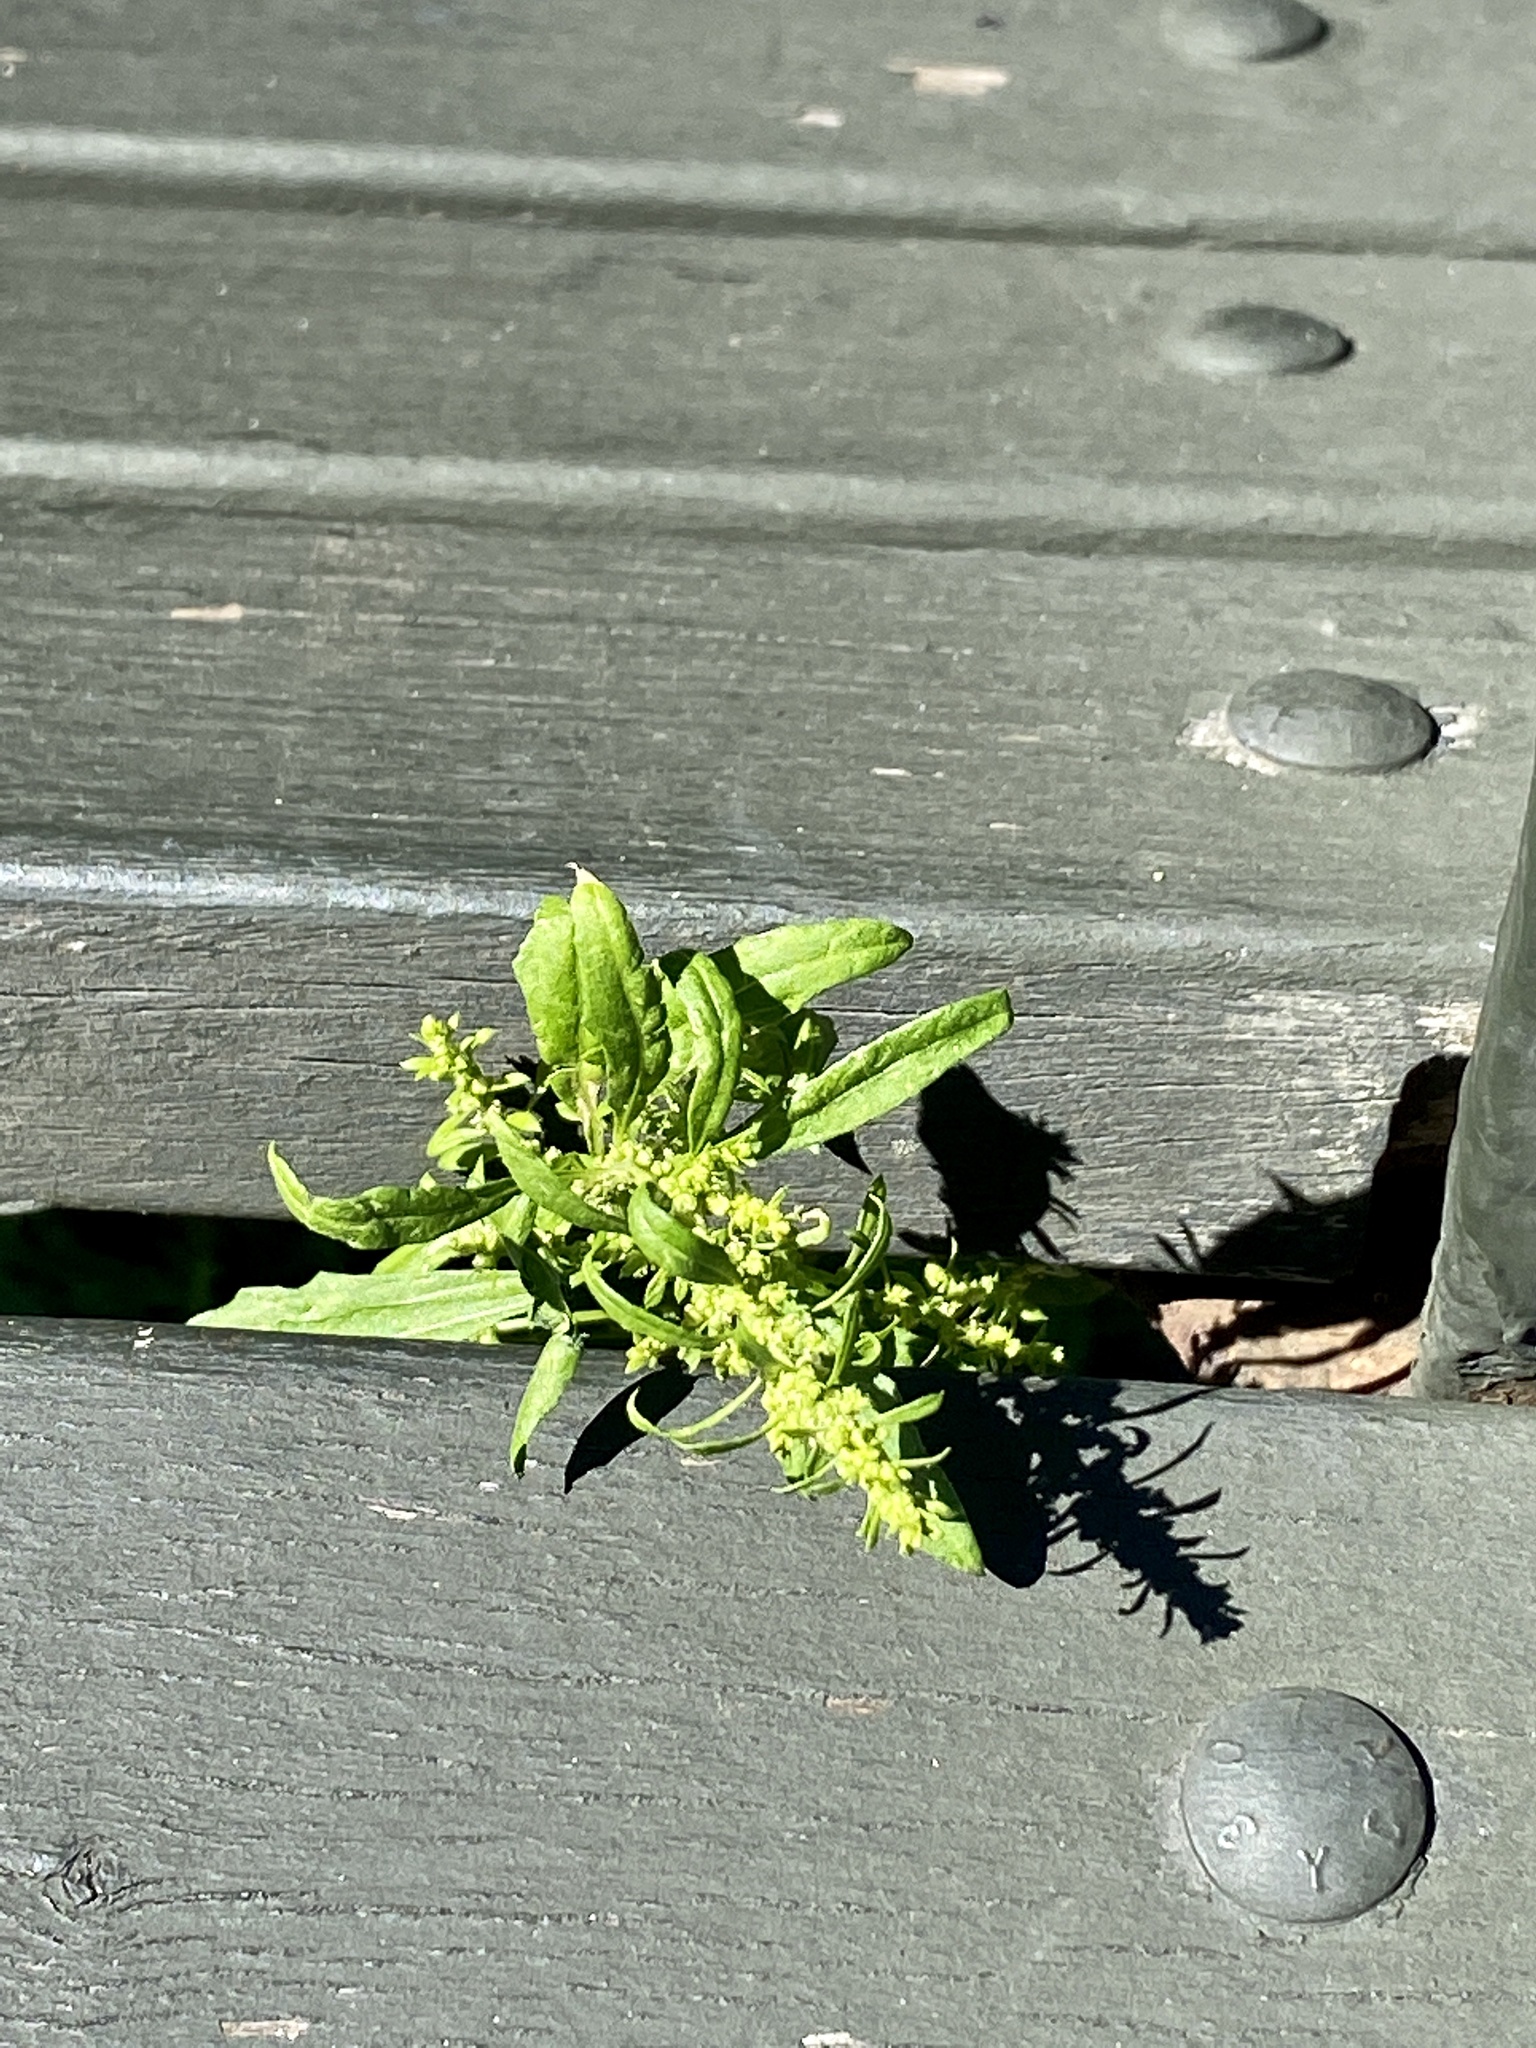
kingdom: Plantae
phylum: Tracheophyta
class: Magnoliopsida
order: Caryophyllales
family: Amaranthaceae
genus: Dysphania
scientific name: Dysphania ambrosioides
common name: Wormseed
